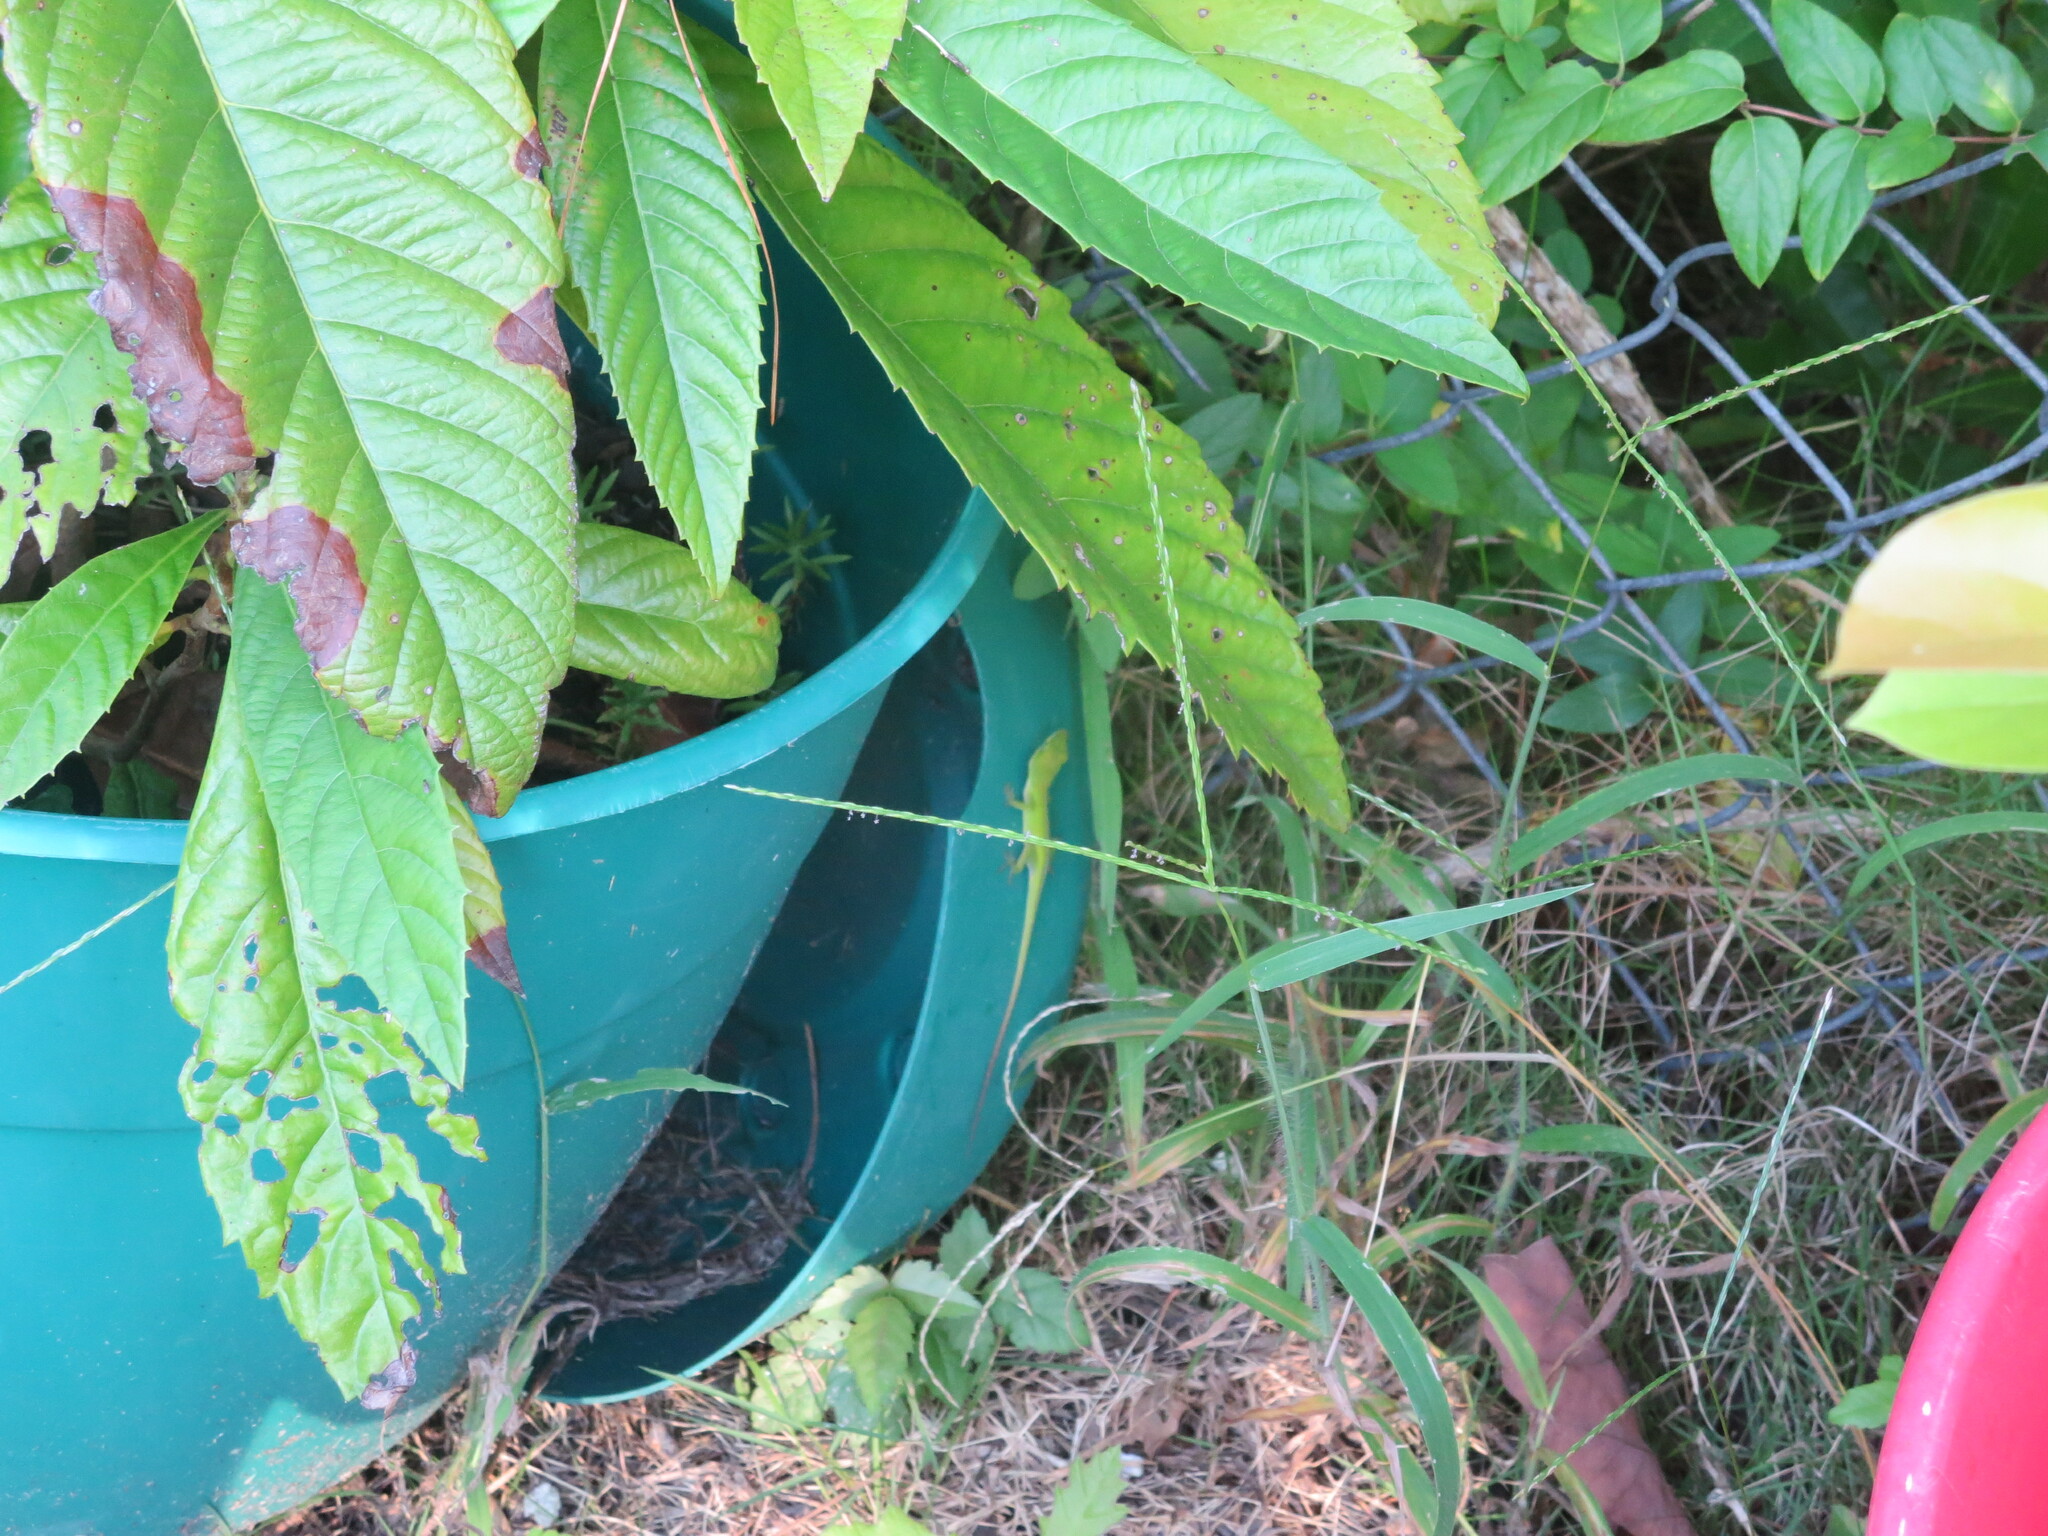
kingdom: Animalia
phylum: Chordata
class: Squamata
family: Dactyloidae
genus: Anolis
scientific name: Anolis carolinensis
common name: Green anole
